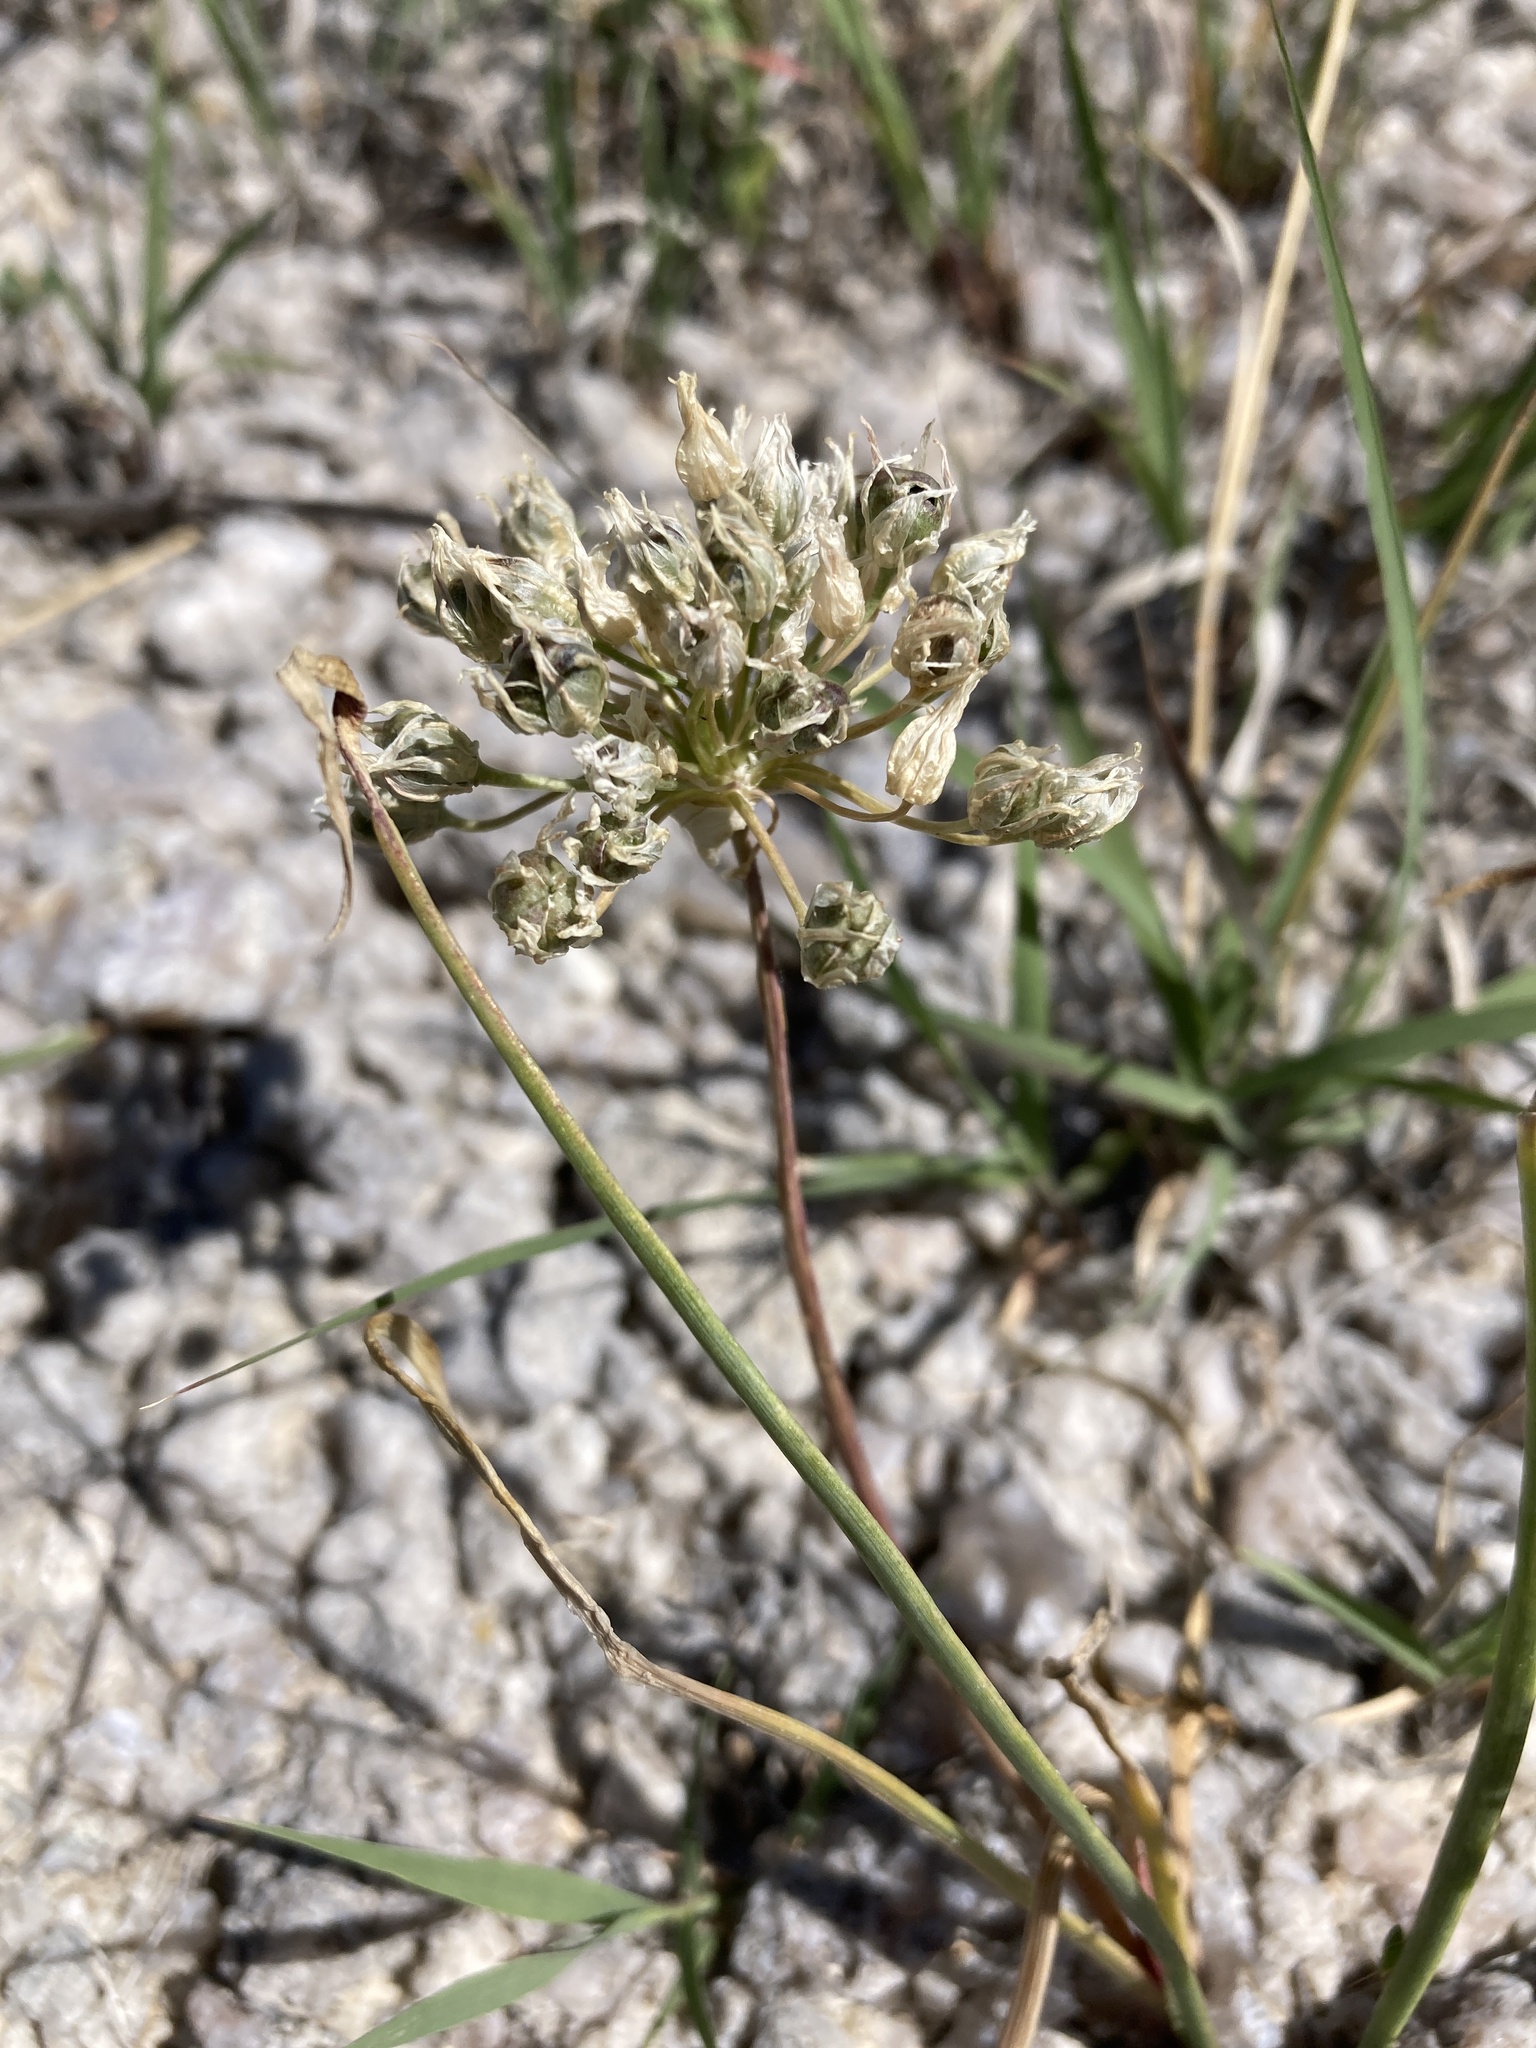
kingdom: Plantae
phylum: Tracheophyta
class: Liliopsida
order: Asparagales
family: Amaryllidaceae
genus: Allium
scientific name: Allium textile
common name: Prairie onion
